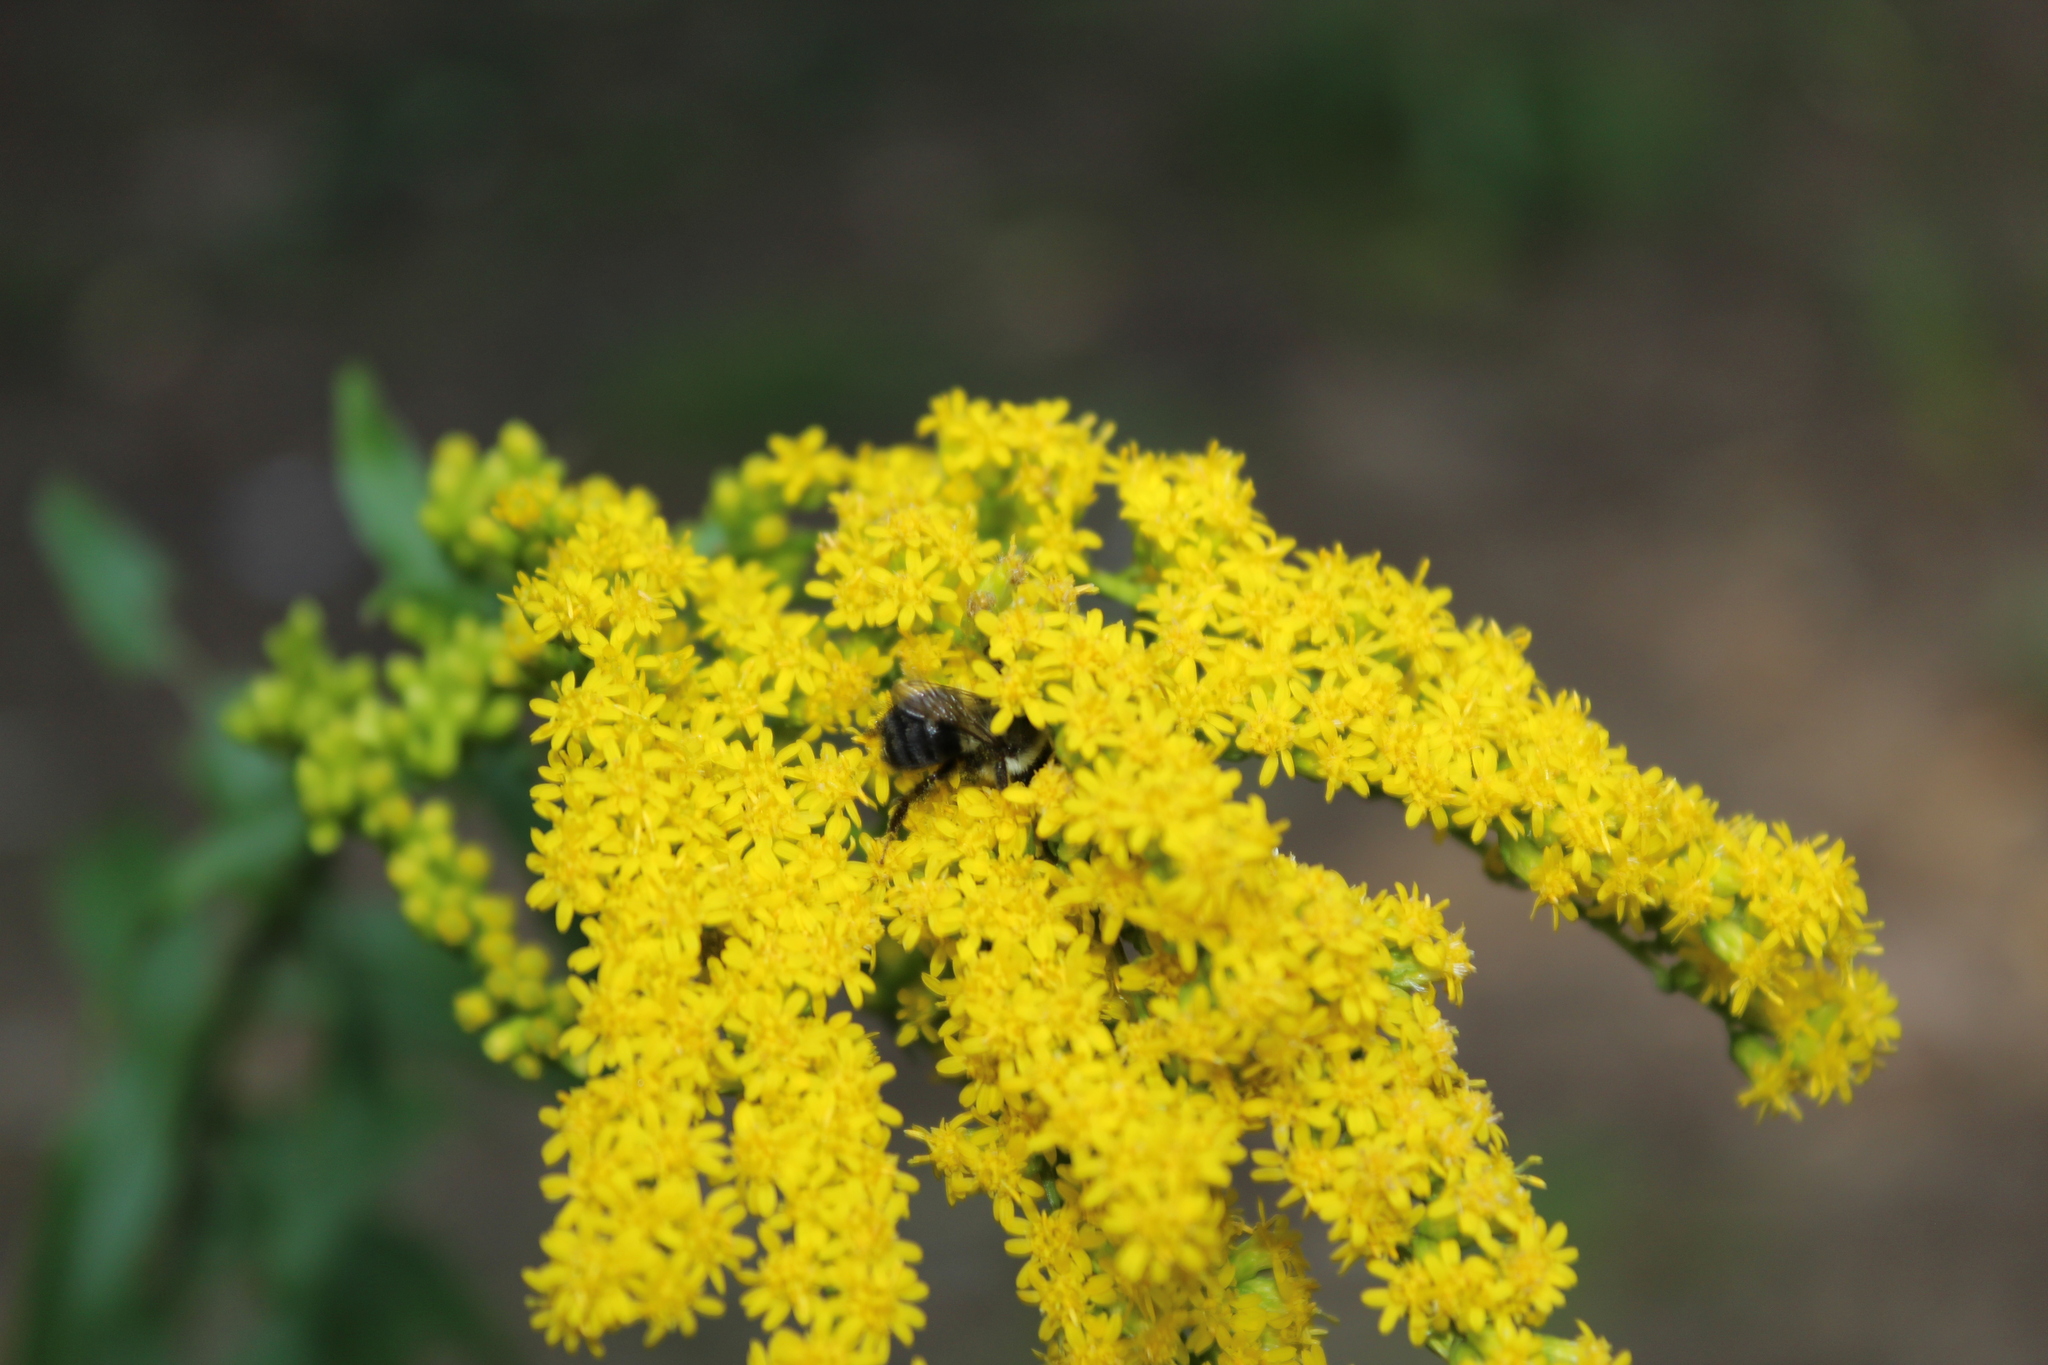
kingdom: Animalia
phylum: Arthropoda
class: Insecta
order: Hymenoptera
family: Apidae
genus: Bombus
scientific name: Bombus impatiens
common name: Common eastern bumble bee
